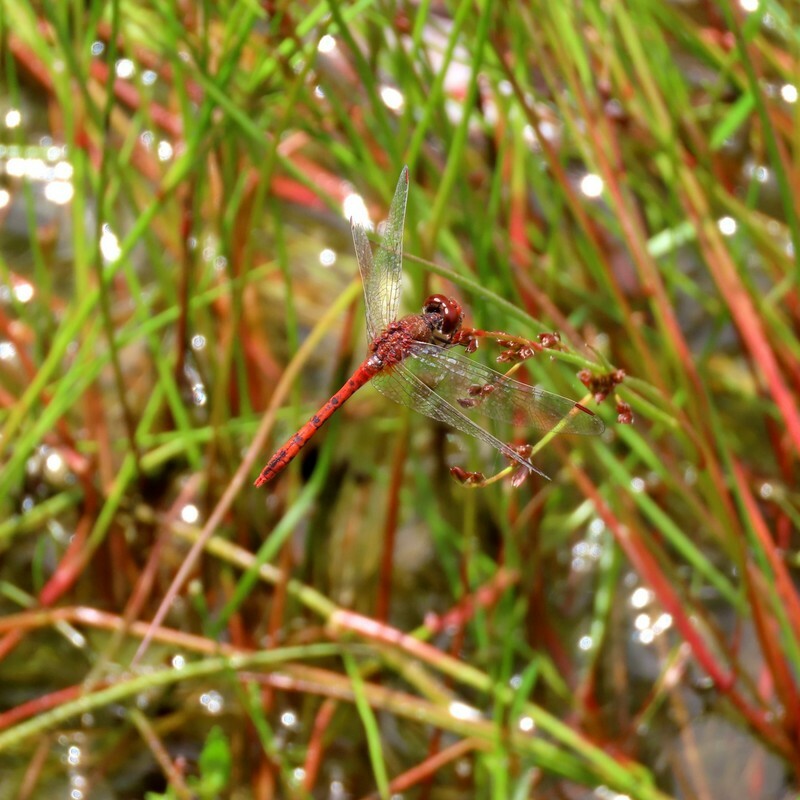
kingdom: Animalia
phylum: Arthropoda
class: Insecta
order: Odonata
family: Libellulidae
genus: Diplacodes
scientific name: Diplacodes bipunctata
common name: Red percher dragonfly
